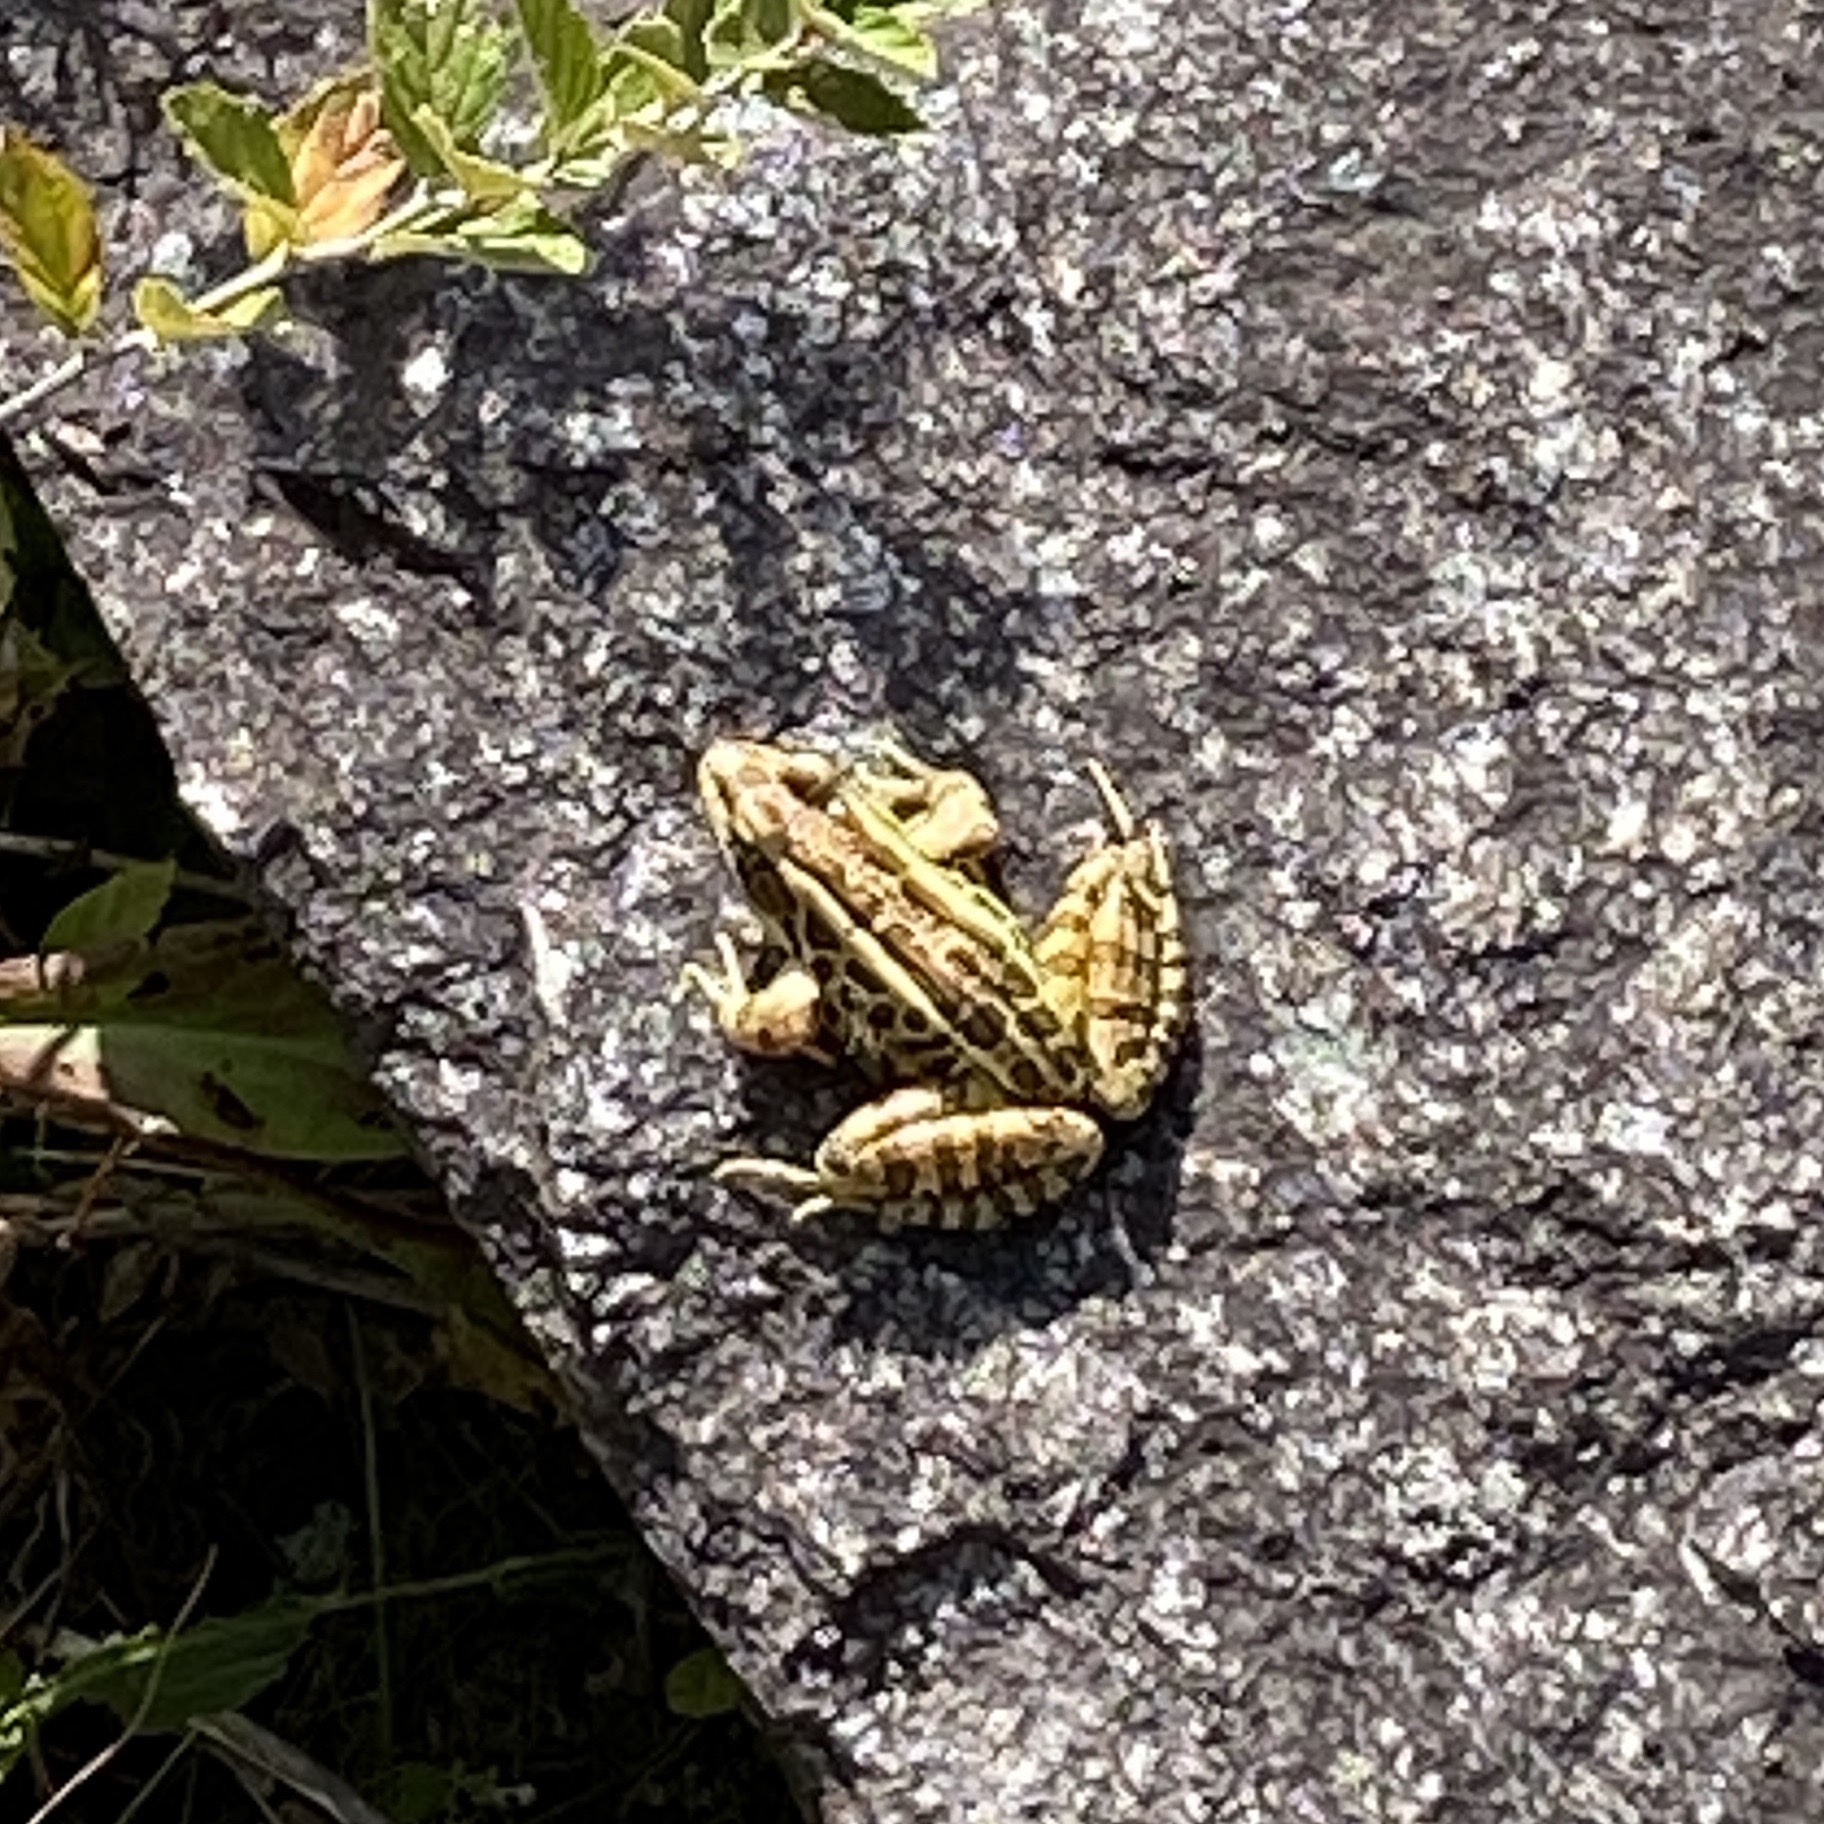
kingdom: Animalia
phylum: Chordata
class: Amphibia
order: Anura
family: Ranidae
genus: Lithobates
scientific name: Lithobates palustris
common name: Pickerel frog
